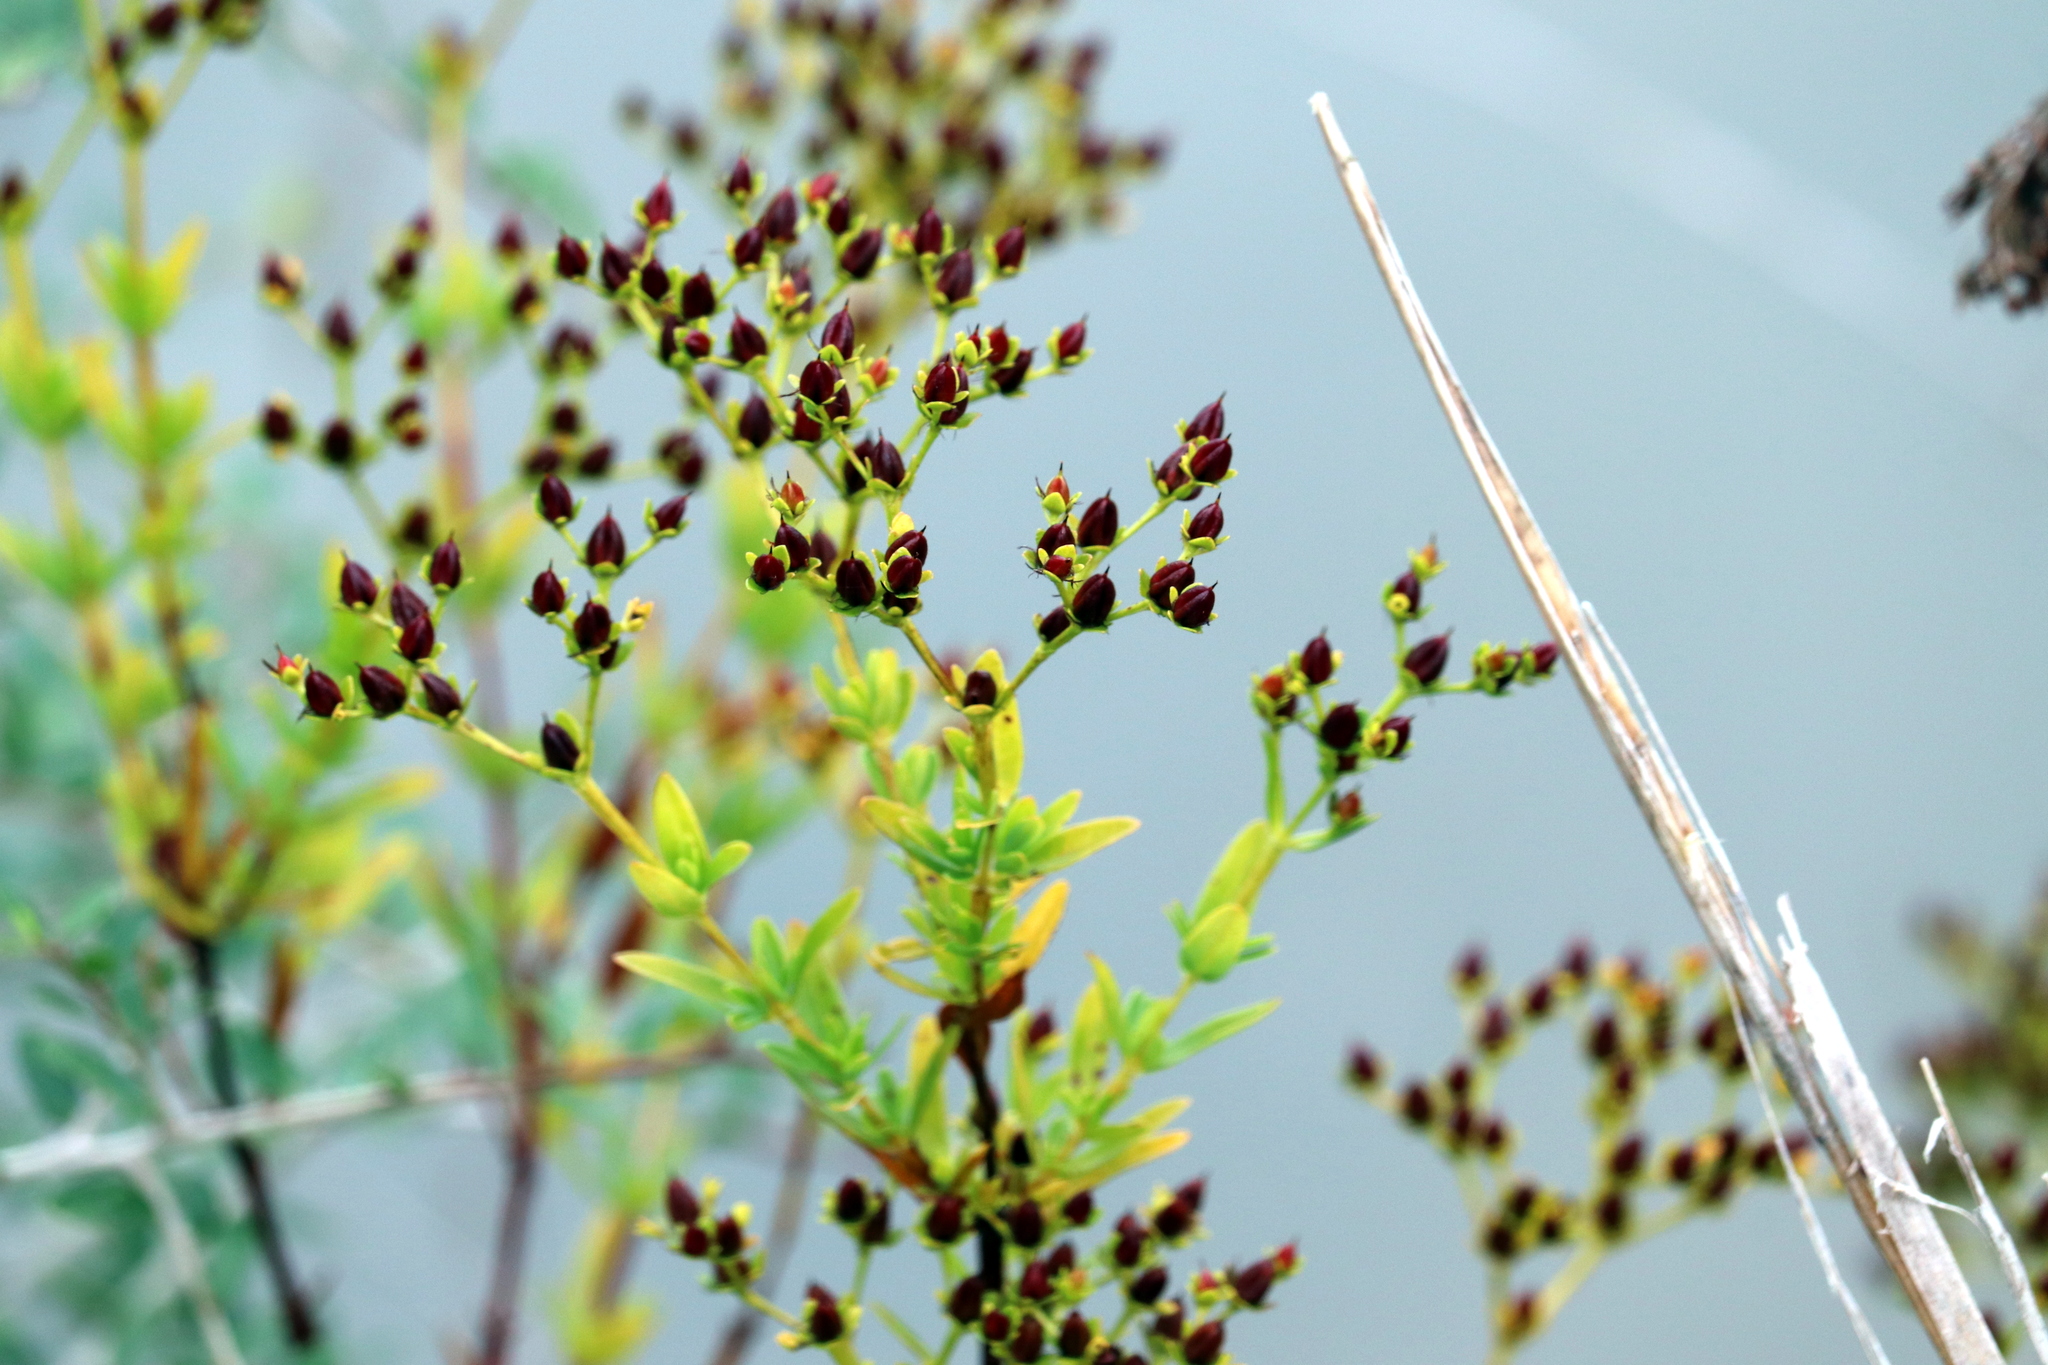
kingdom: Plantae
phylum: Tracheophyta
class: Magnoliopsida
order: Malpighiales
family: Hypericaceae
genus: Hypericum
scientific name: Hypericum cistifolium
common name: Round-pod st. john's-wort
